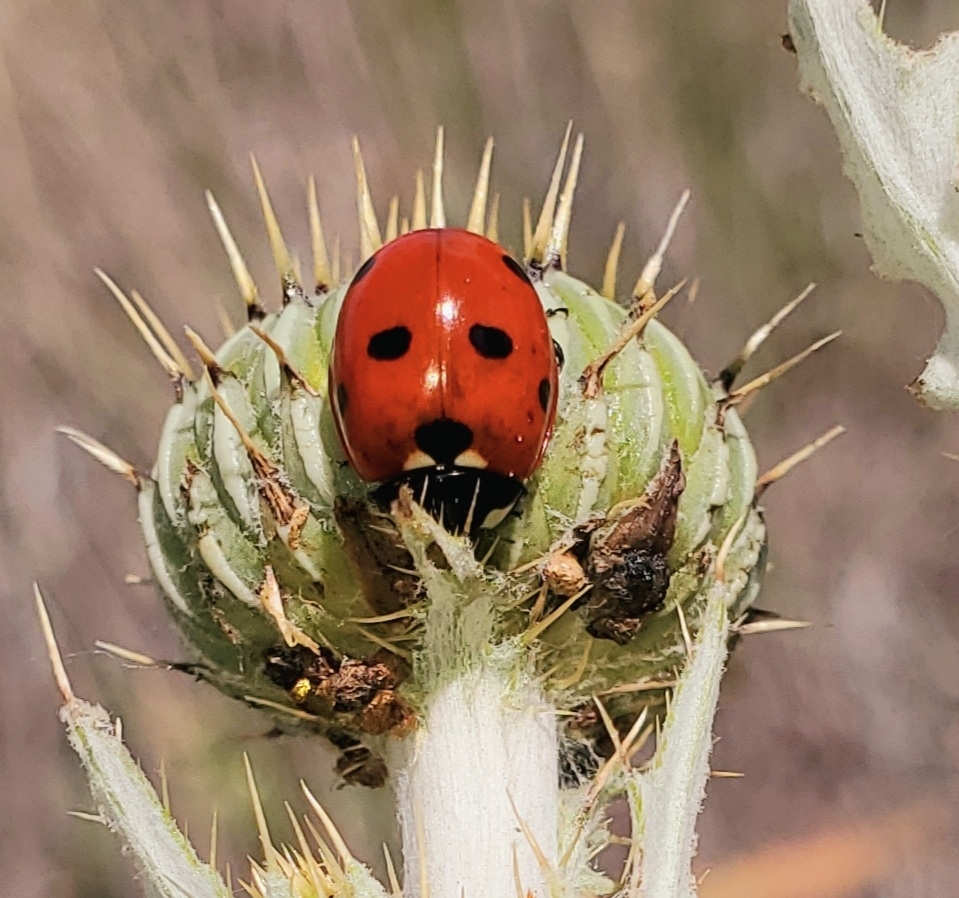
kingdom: Animalia
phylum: Arthropoda
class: Insecta
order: Coleoptera
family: Coccinellidae
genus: Coccinella
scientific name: Coccinella septempunctata
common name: Sevenspotted lady beetle
